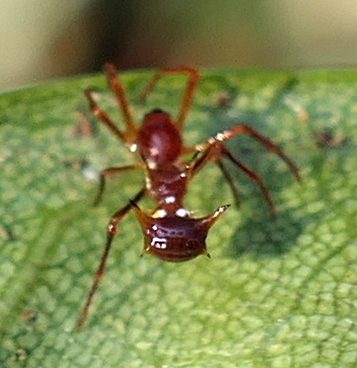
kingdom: Animalia
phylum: Arthropoda
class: Arachnida
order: Araneae
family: Araneidae
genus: Micrathena
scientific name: Micrathena schreibersi
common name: Orb weavers
